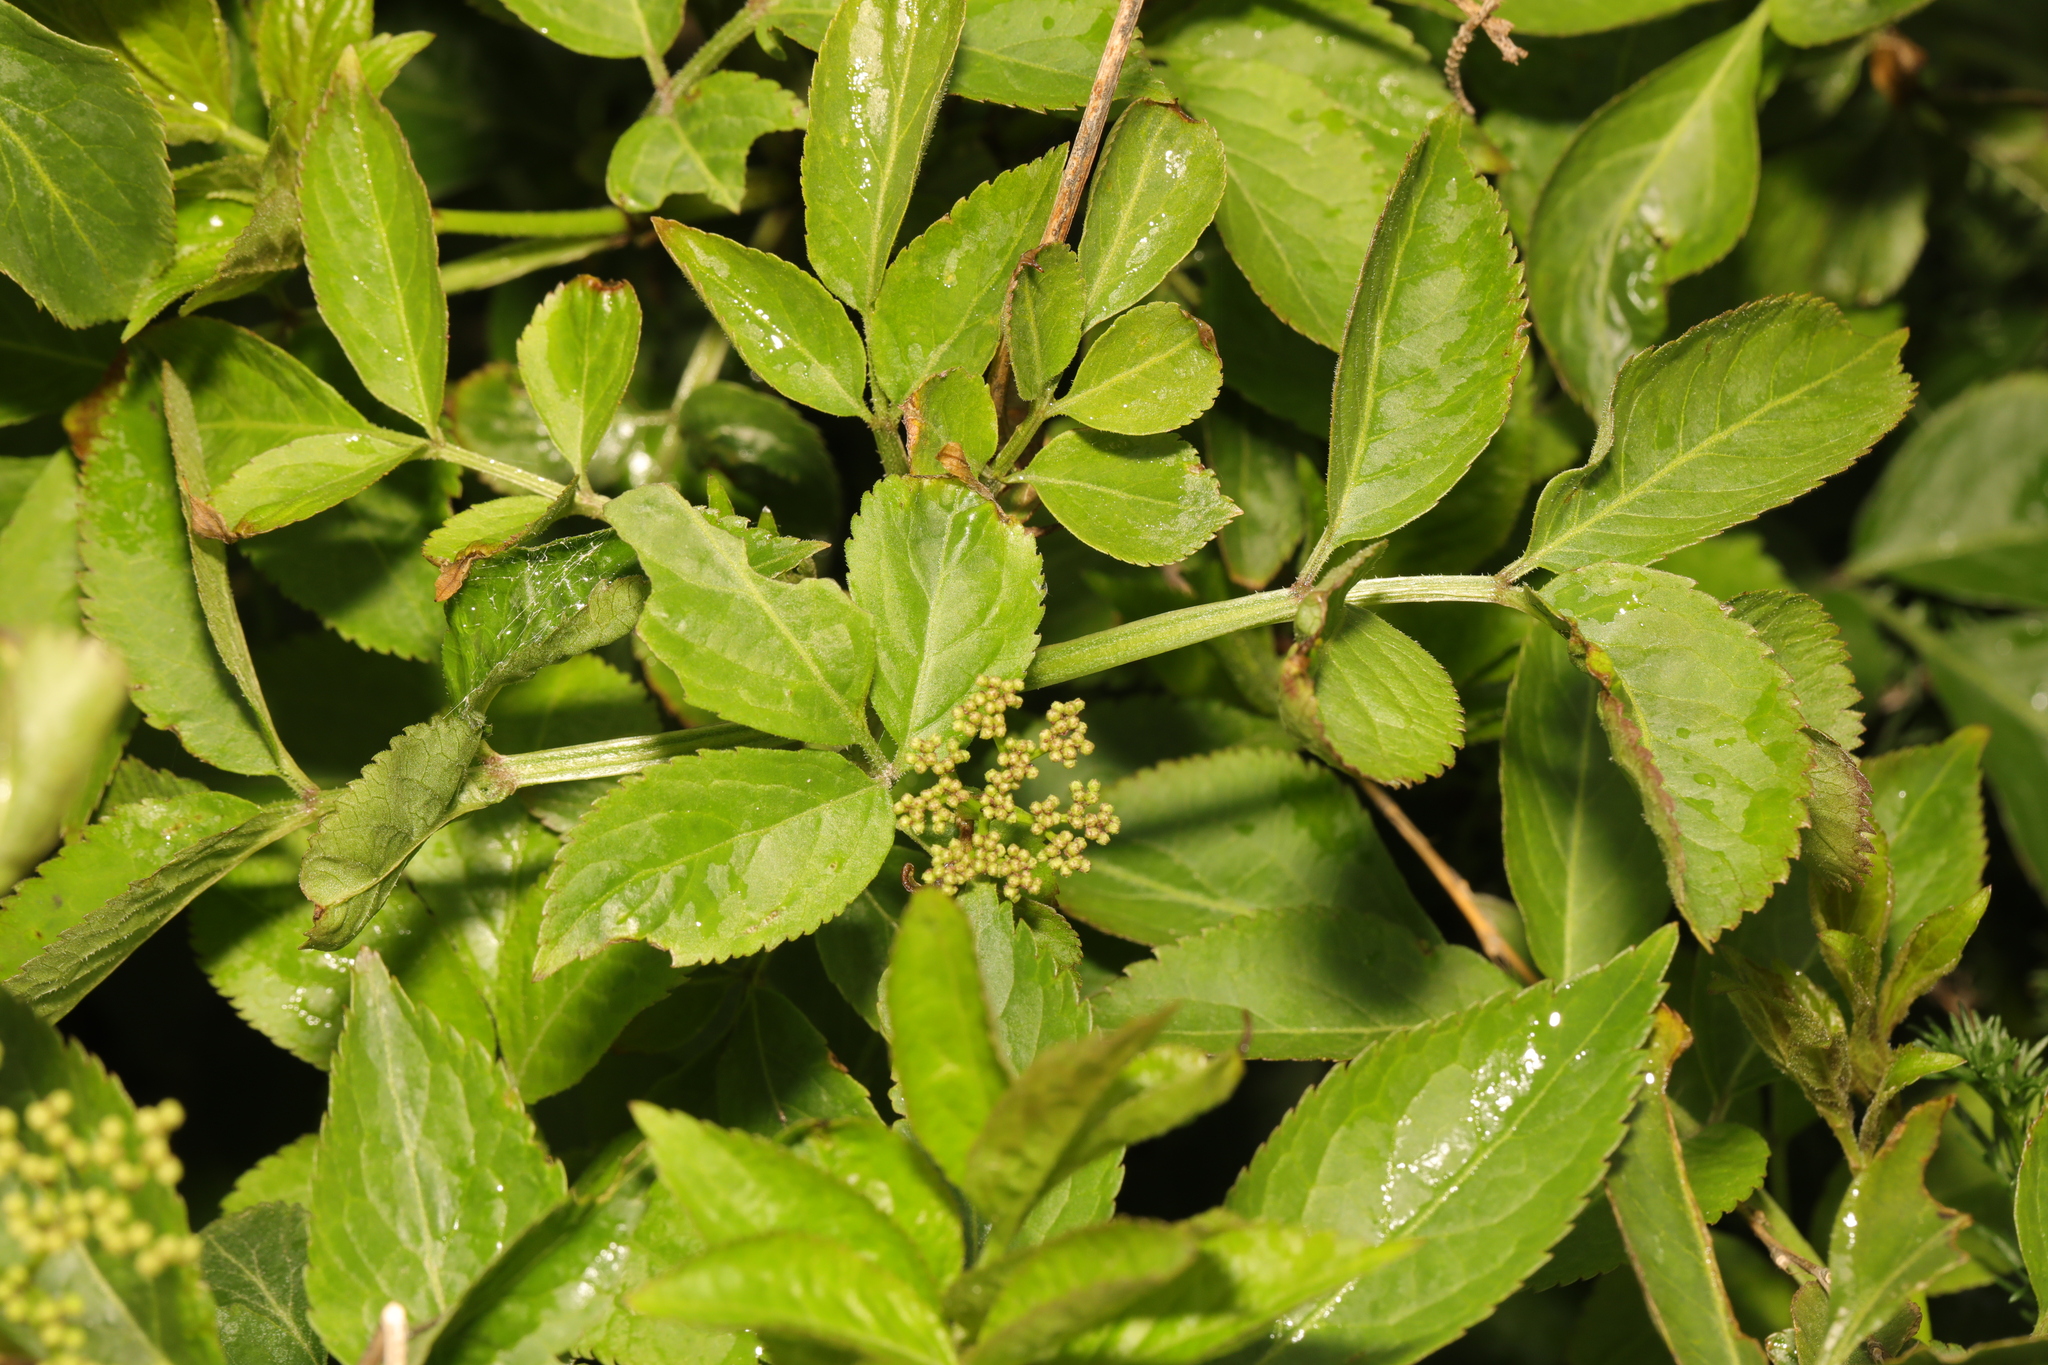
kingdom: Plantae
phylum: Tracheophyta
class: Magnoliopsida
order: Dipsacales
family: Viburnaceae
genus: Sambucus
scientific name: Sambucus nigra
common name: Elder
